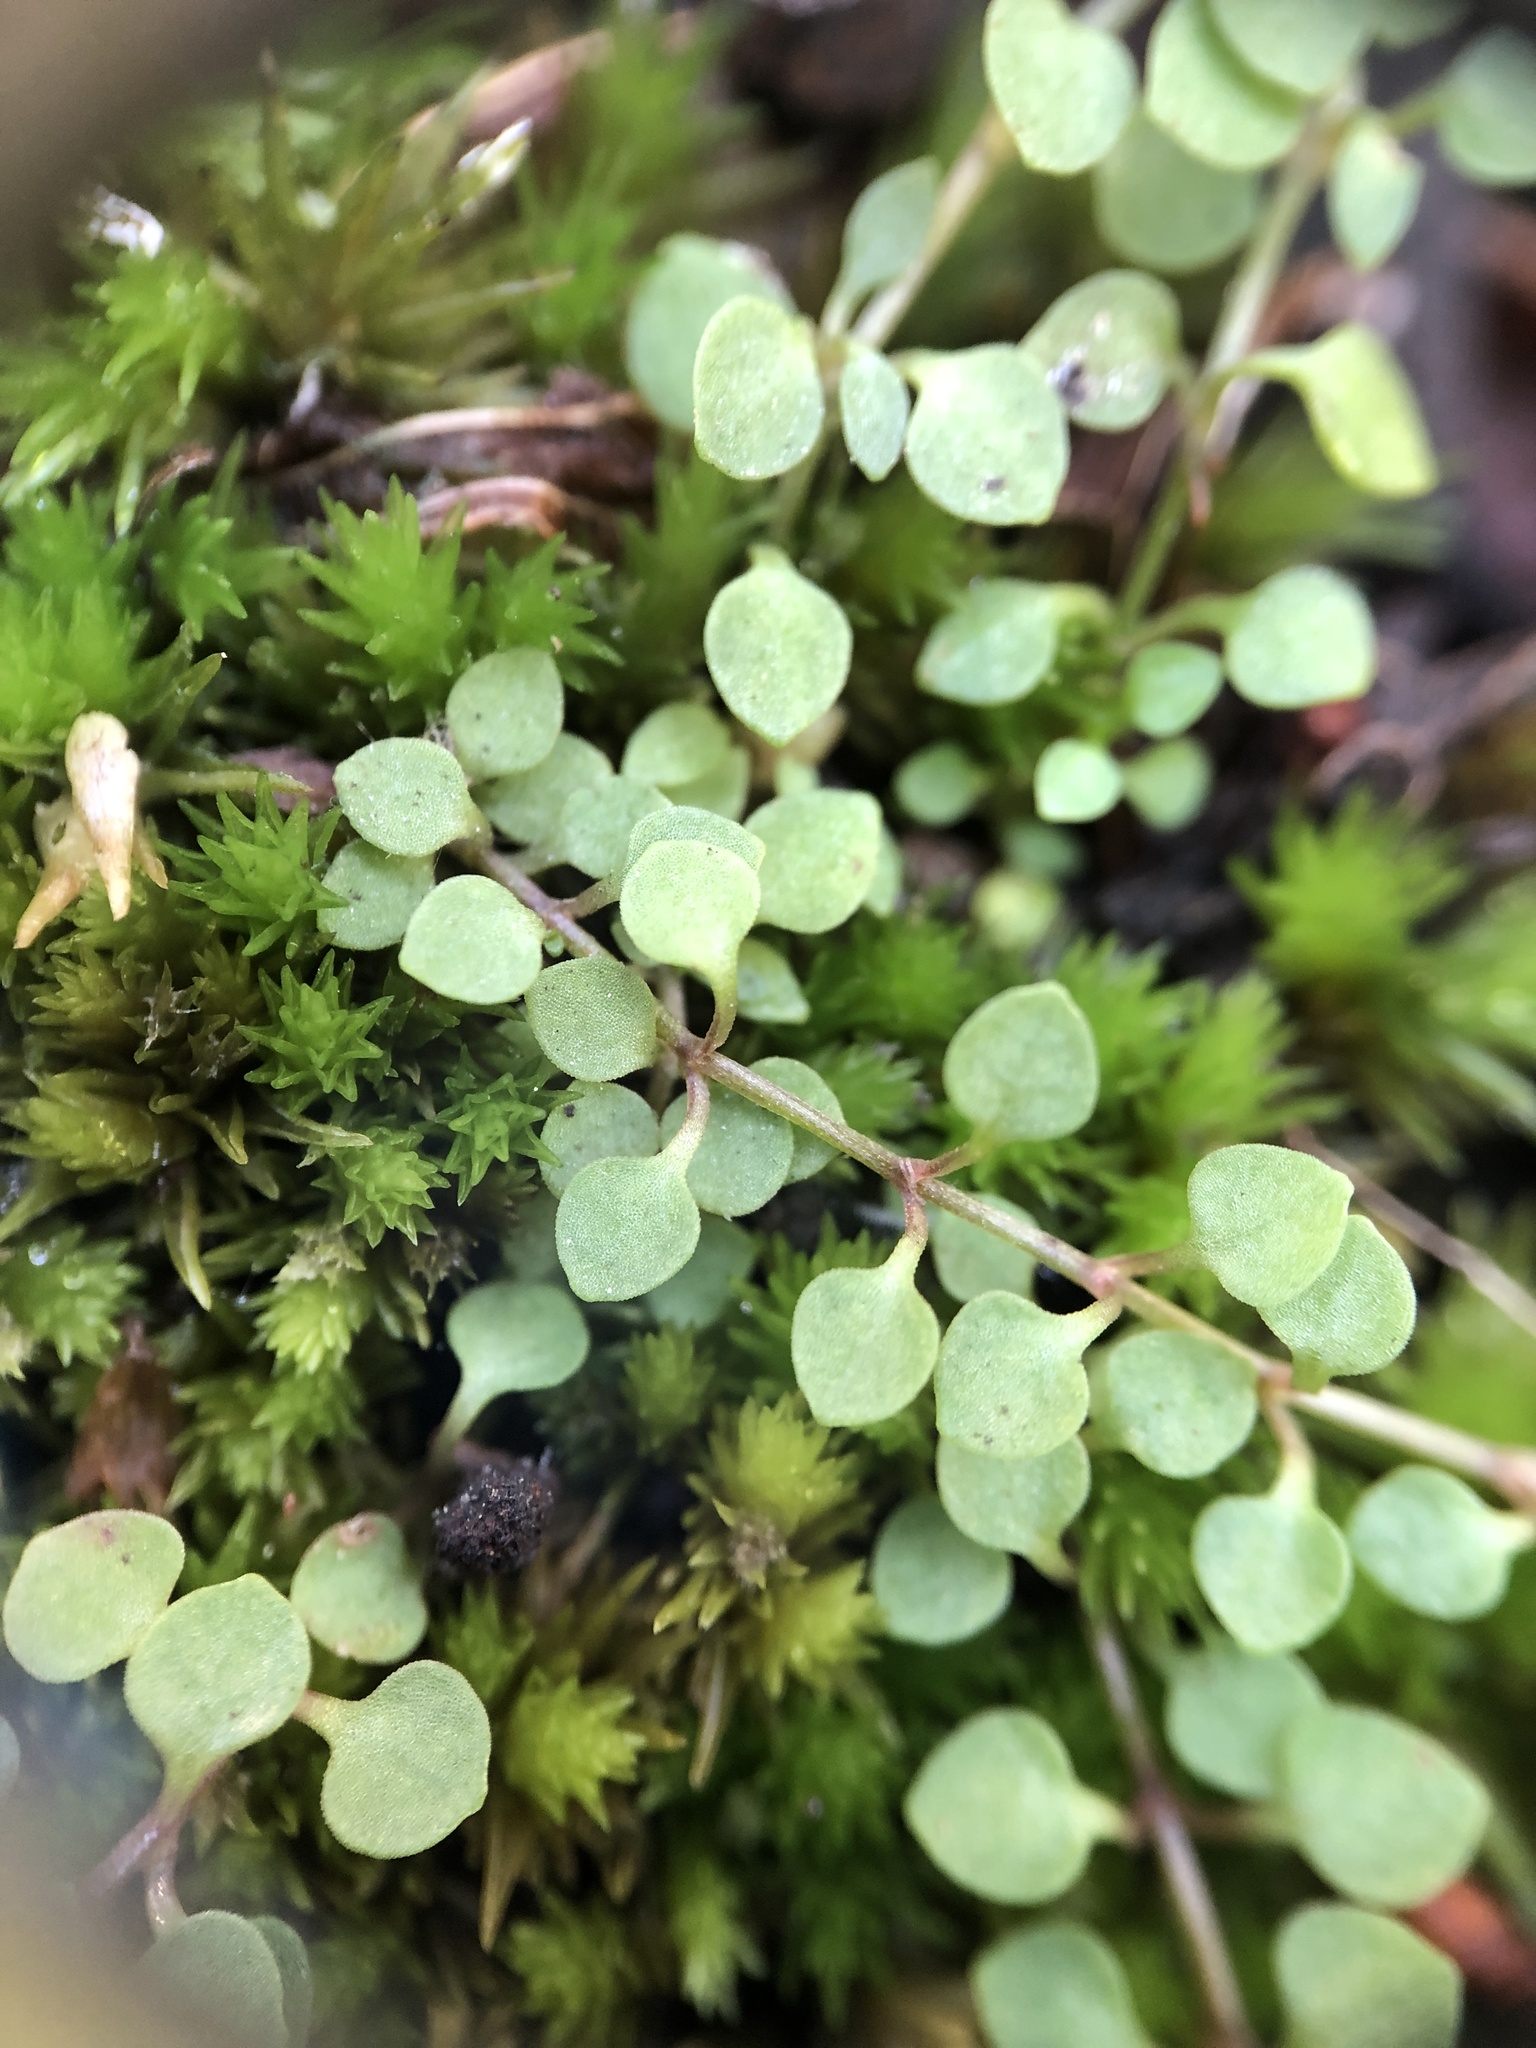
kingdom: Plantae
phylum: Tracheophyta
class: Magnoliopsida
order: Gentianales
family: Rubiaceae
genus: Houstonia
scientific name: Houstonia serpyllifolia
